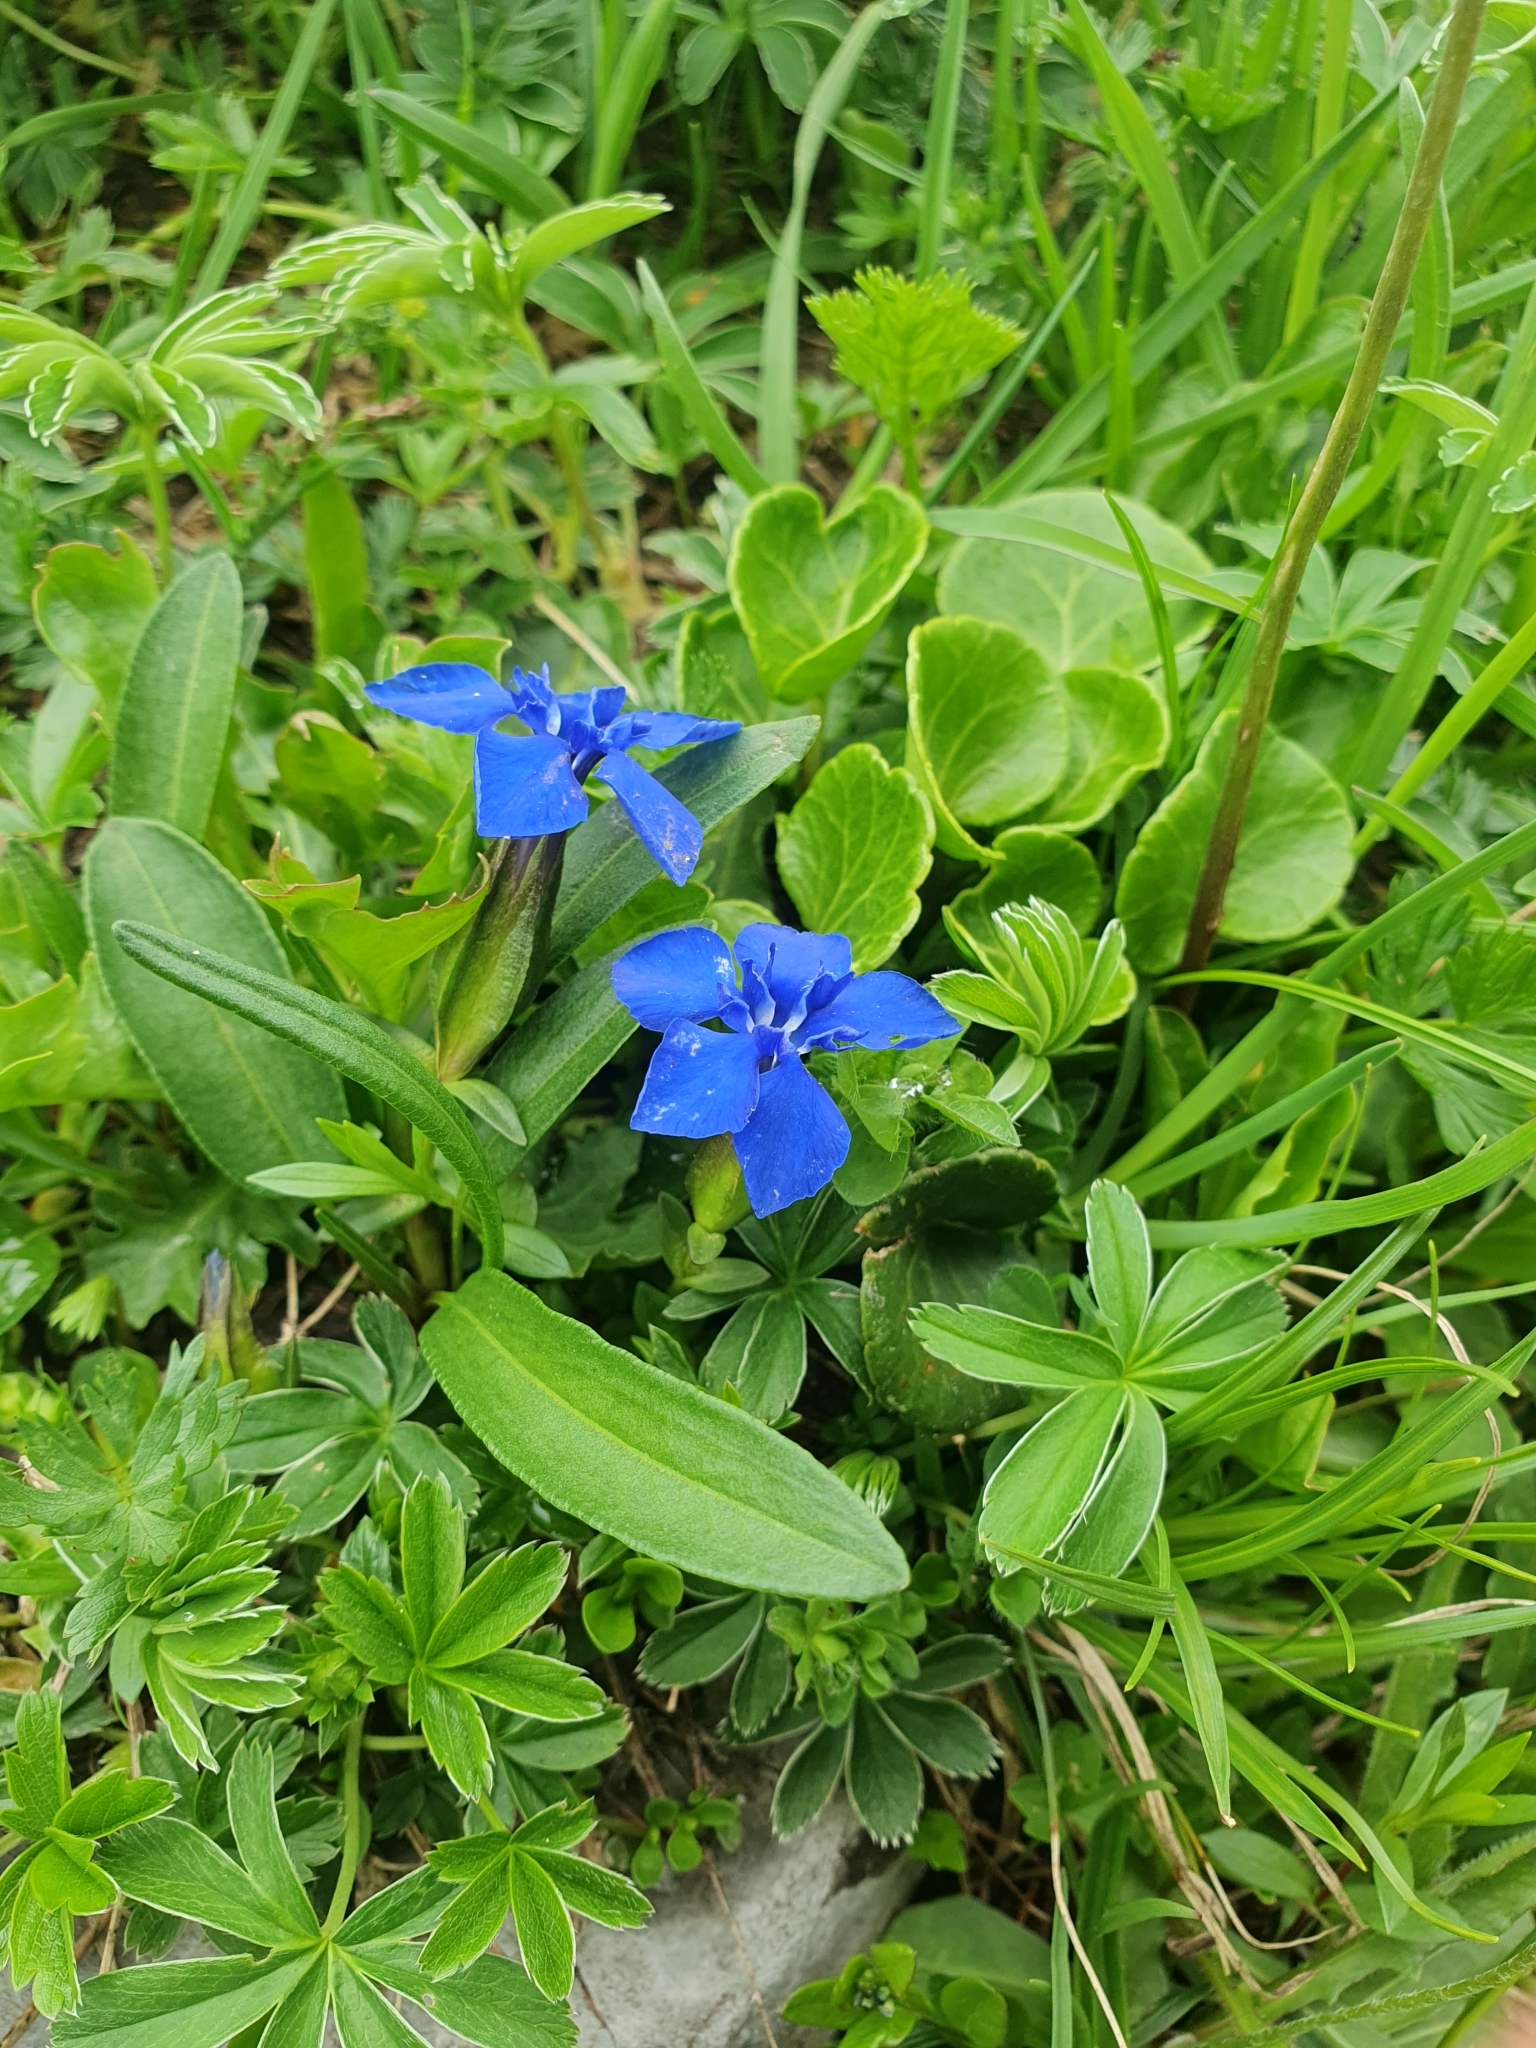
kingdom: Plantae
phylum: Tracheophyta
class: Magnoliopsida
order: Gentianales
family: Gentianaceae
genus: Gentiana
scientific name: Gentiana verna
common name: Spring gentian
